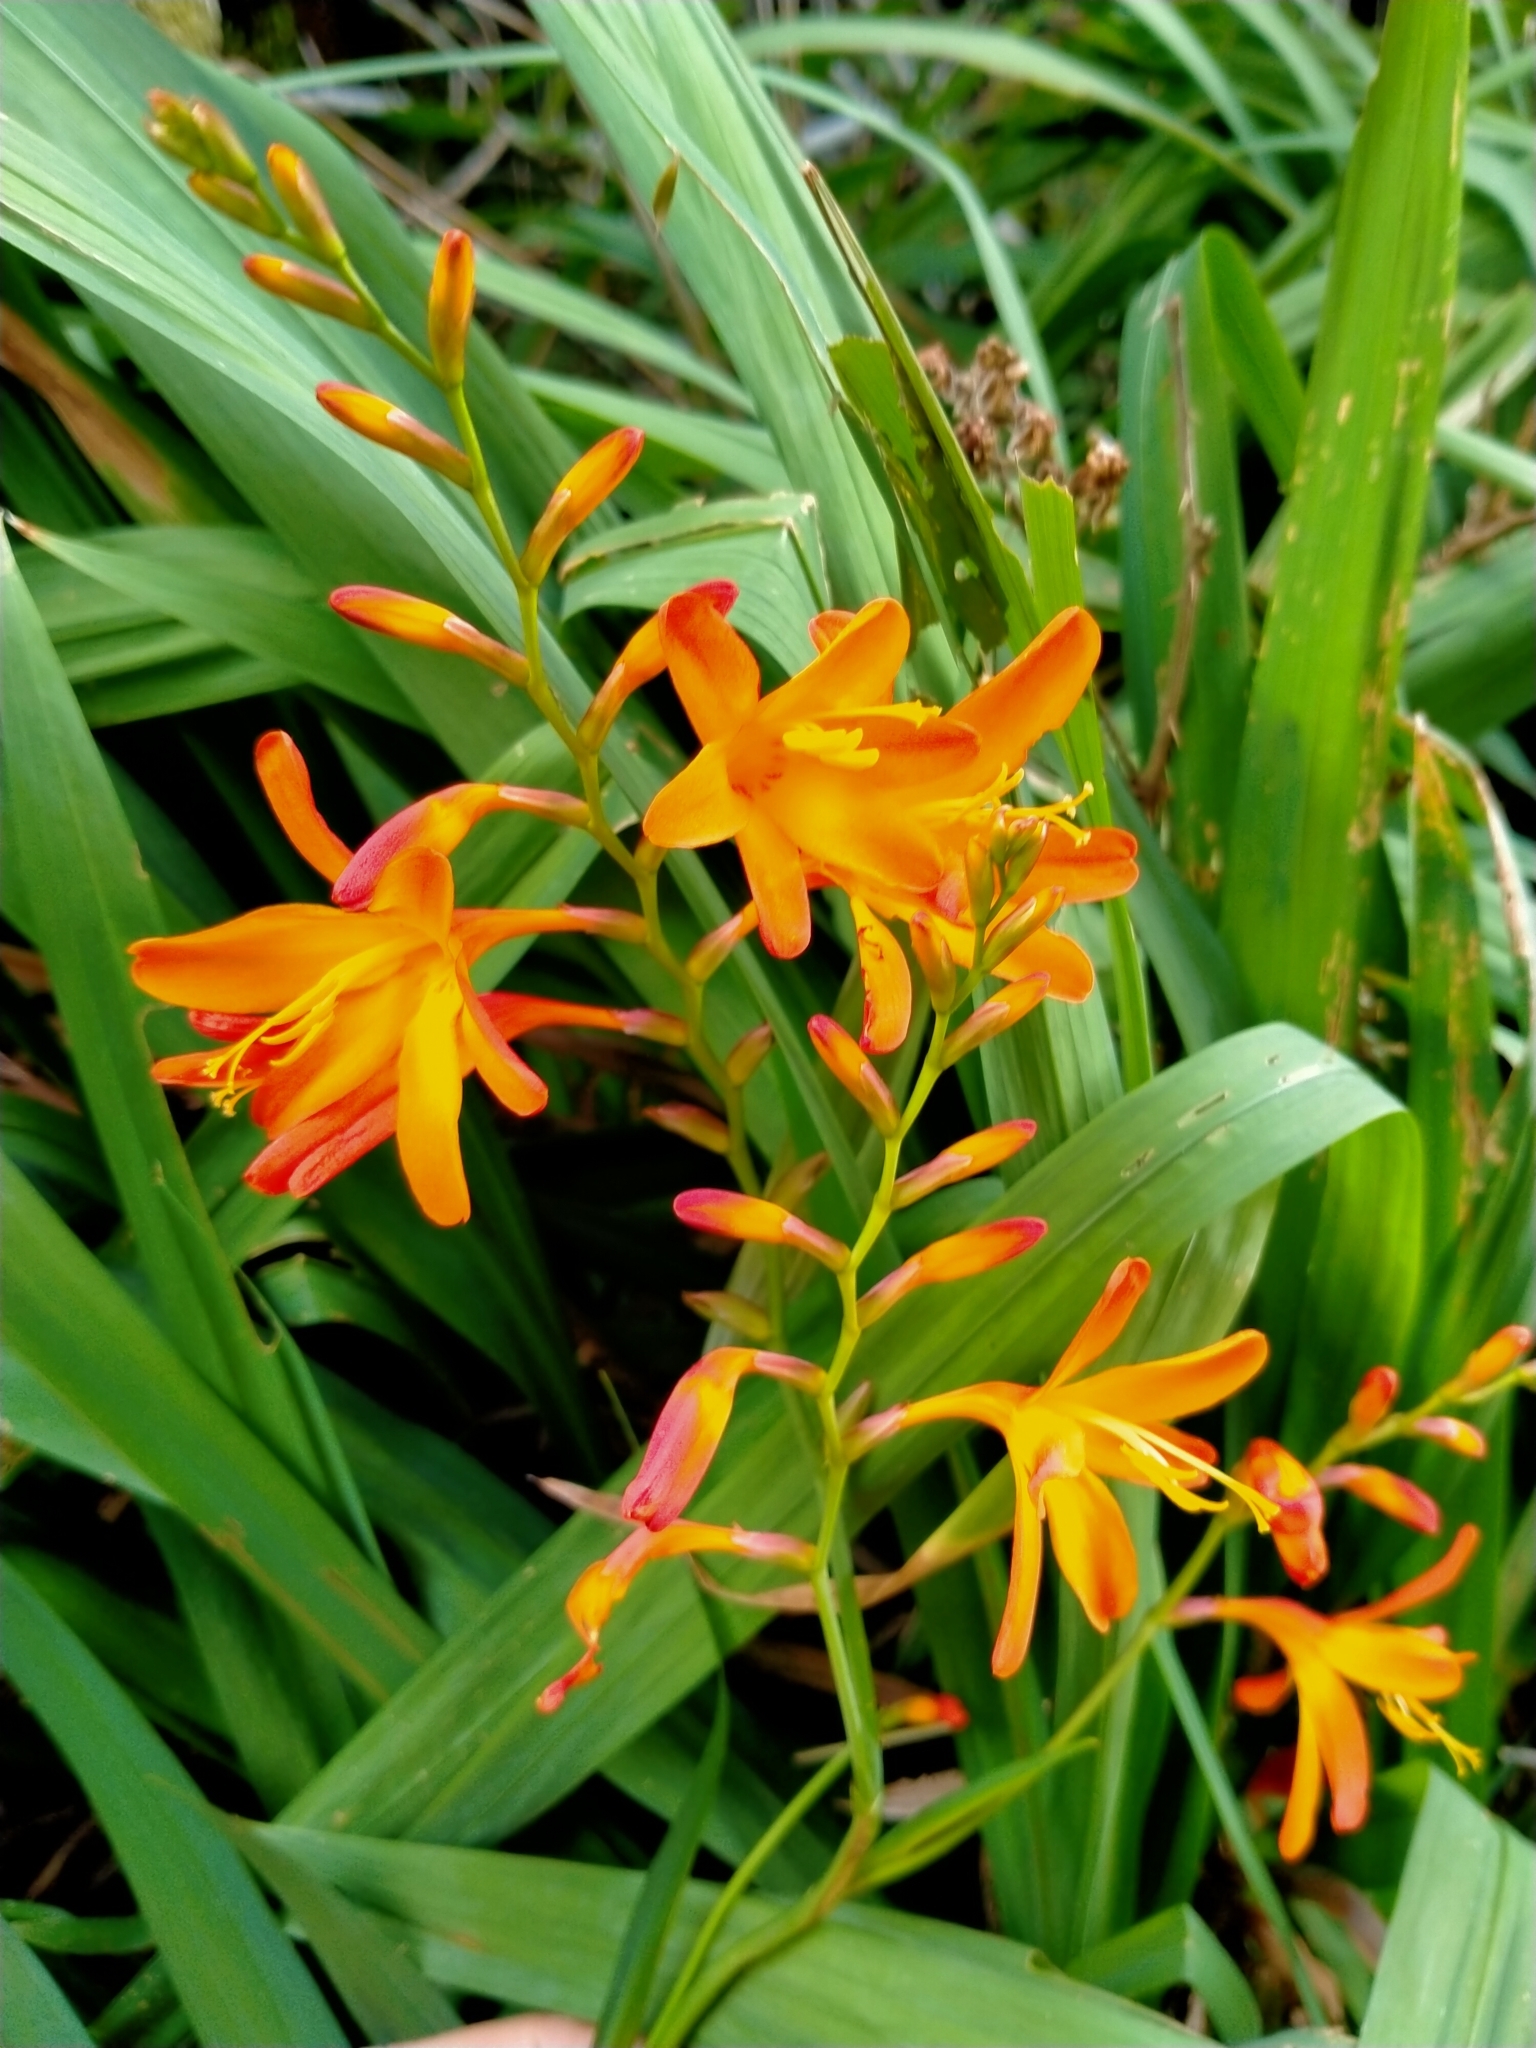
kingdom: Plantae
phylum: Tracheophyta
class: Liliopsida
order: Asparagales
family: Iridaceae
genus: Crocosmia
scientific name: Crocosmia crocosmiiflora
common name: Montbretia
